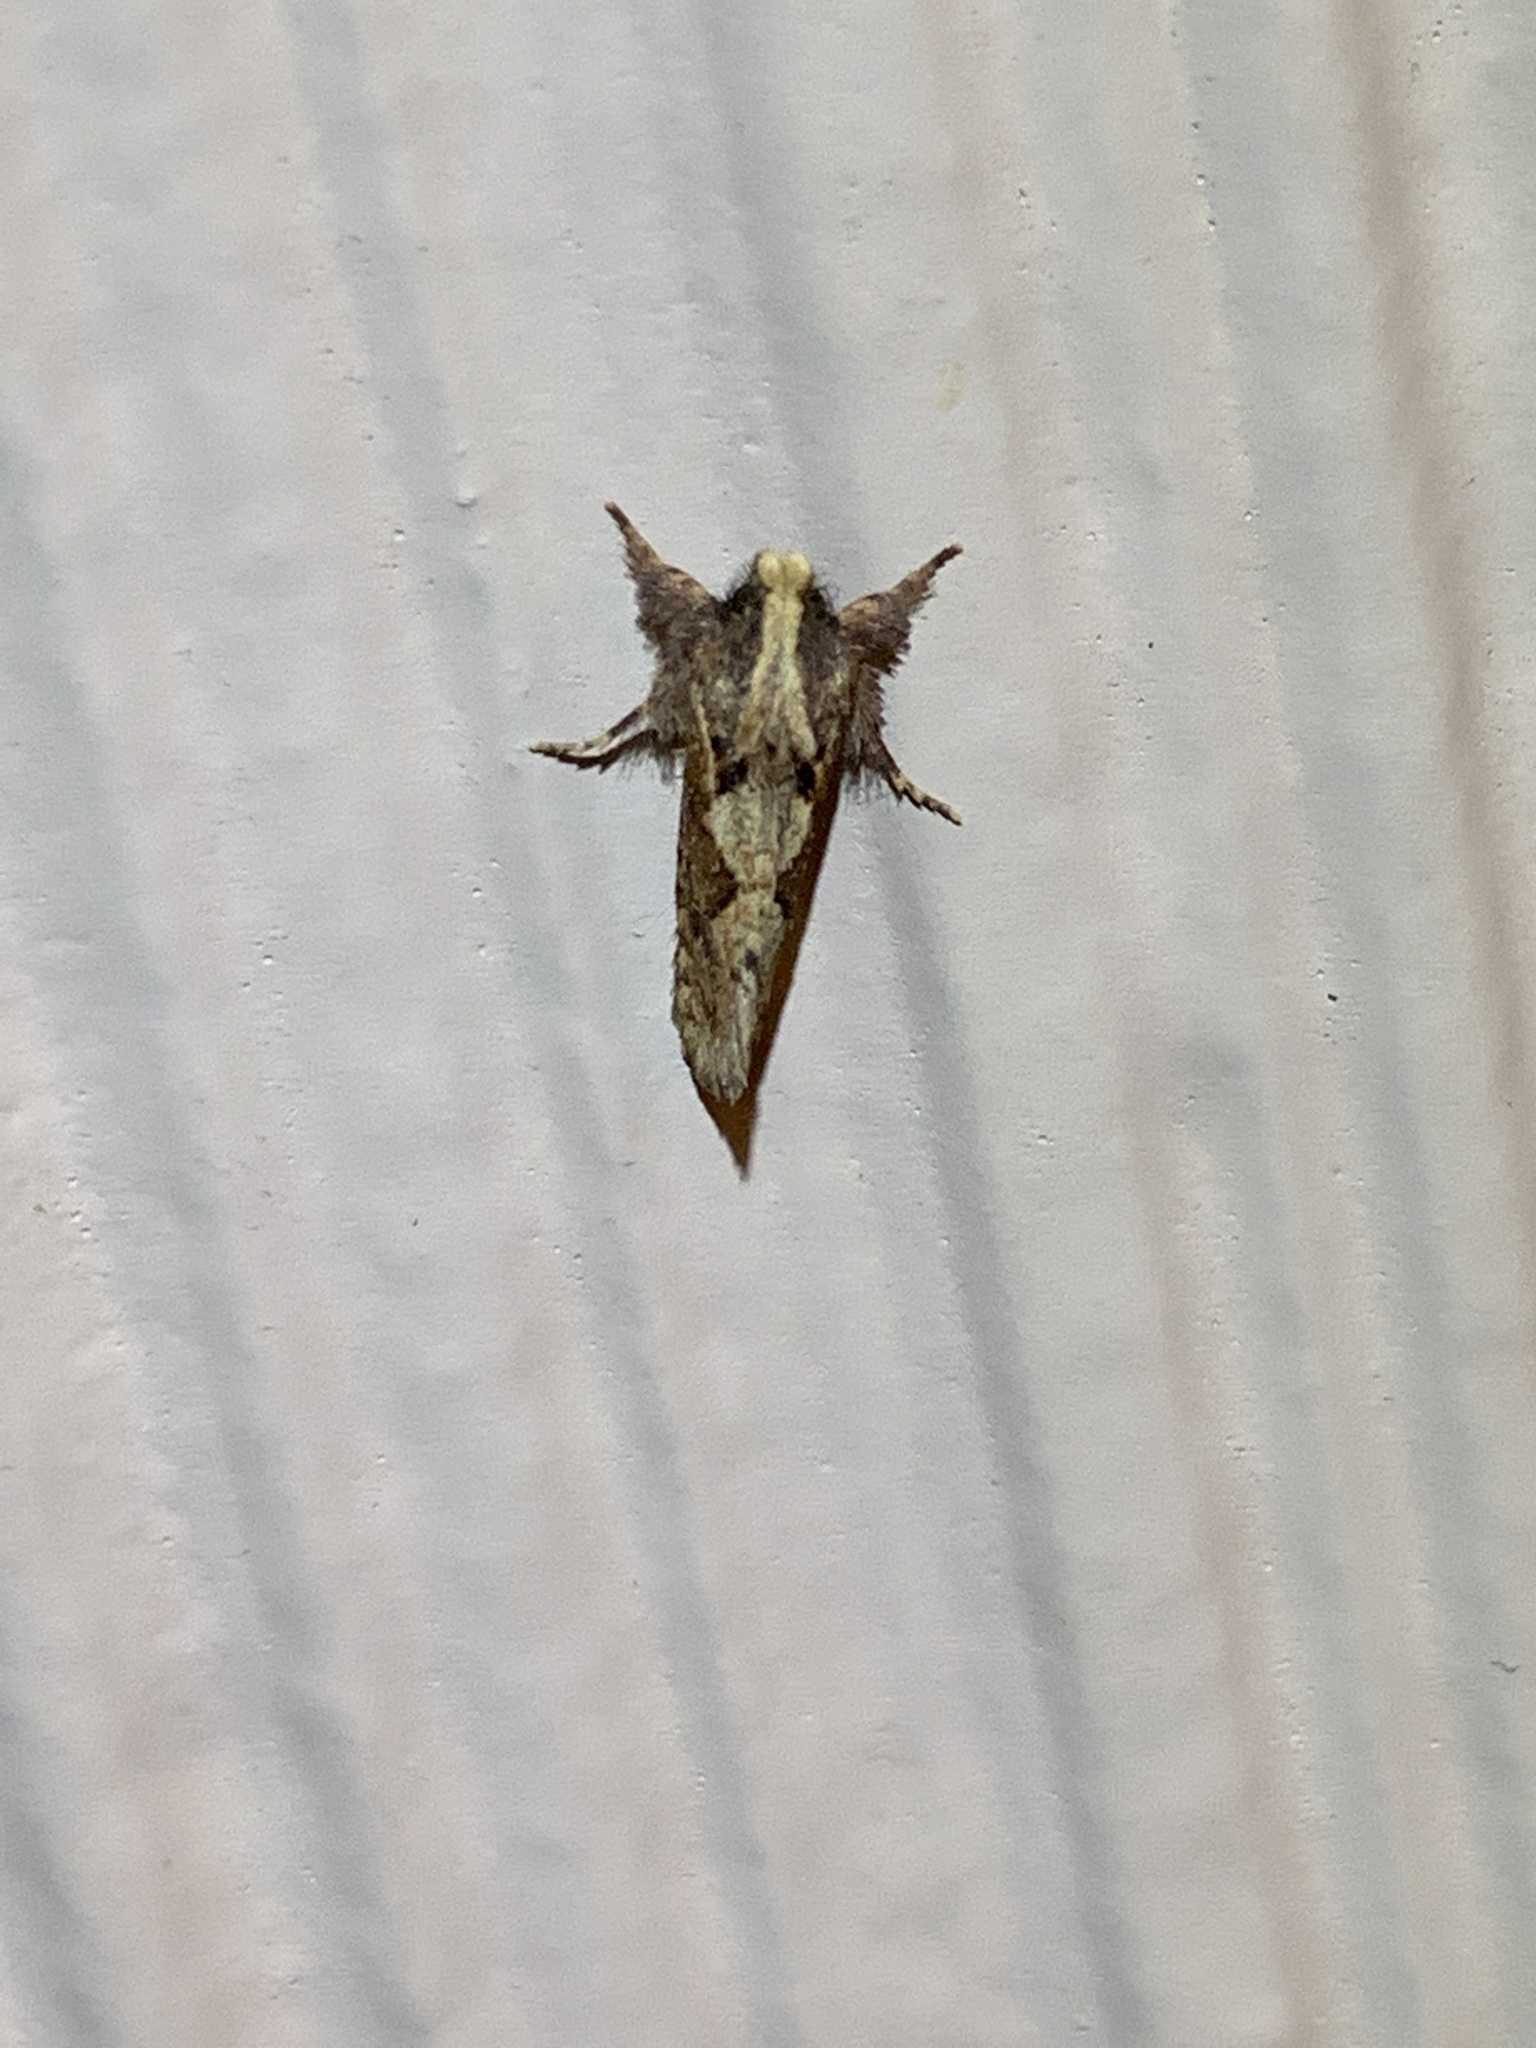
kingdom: Animalia
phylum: Arthropoda
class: Insecta
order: Lepidoptera
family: Tineidae
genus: Acrolophus
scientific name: Acrolophus walsinghami
